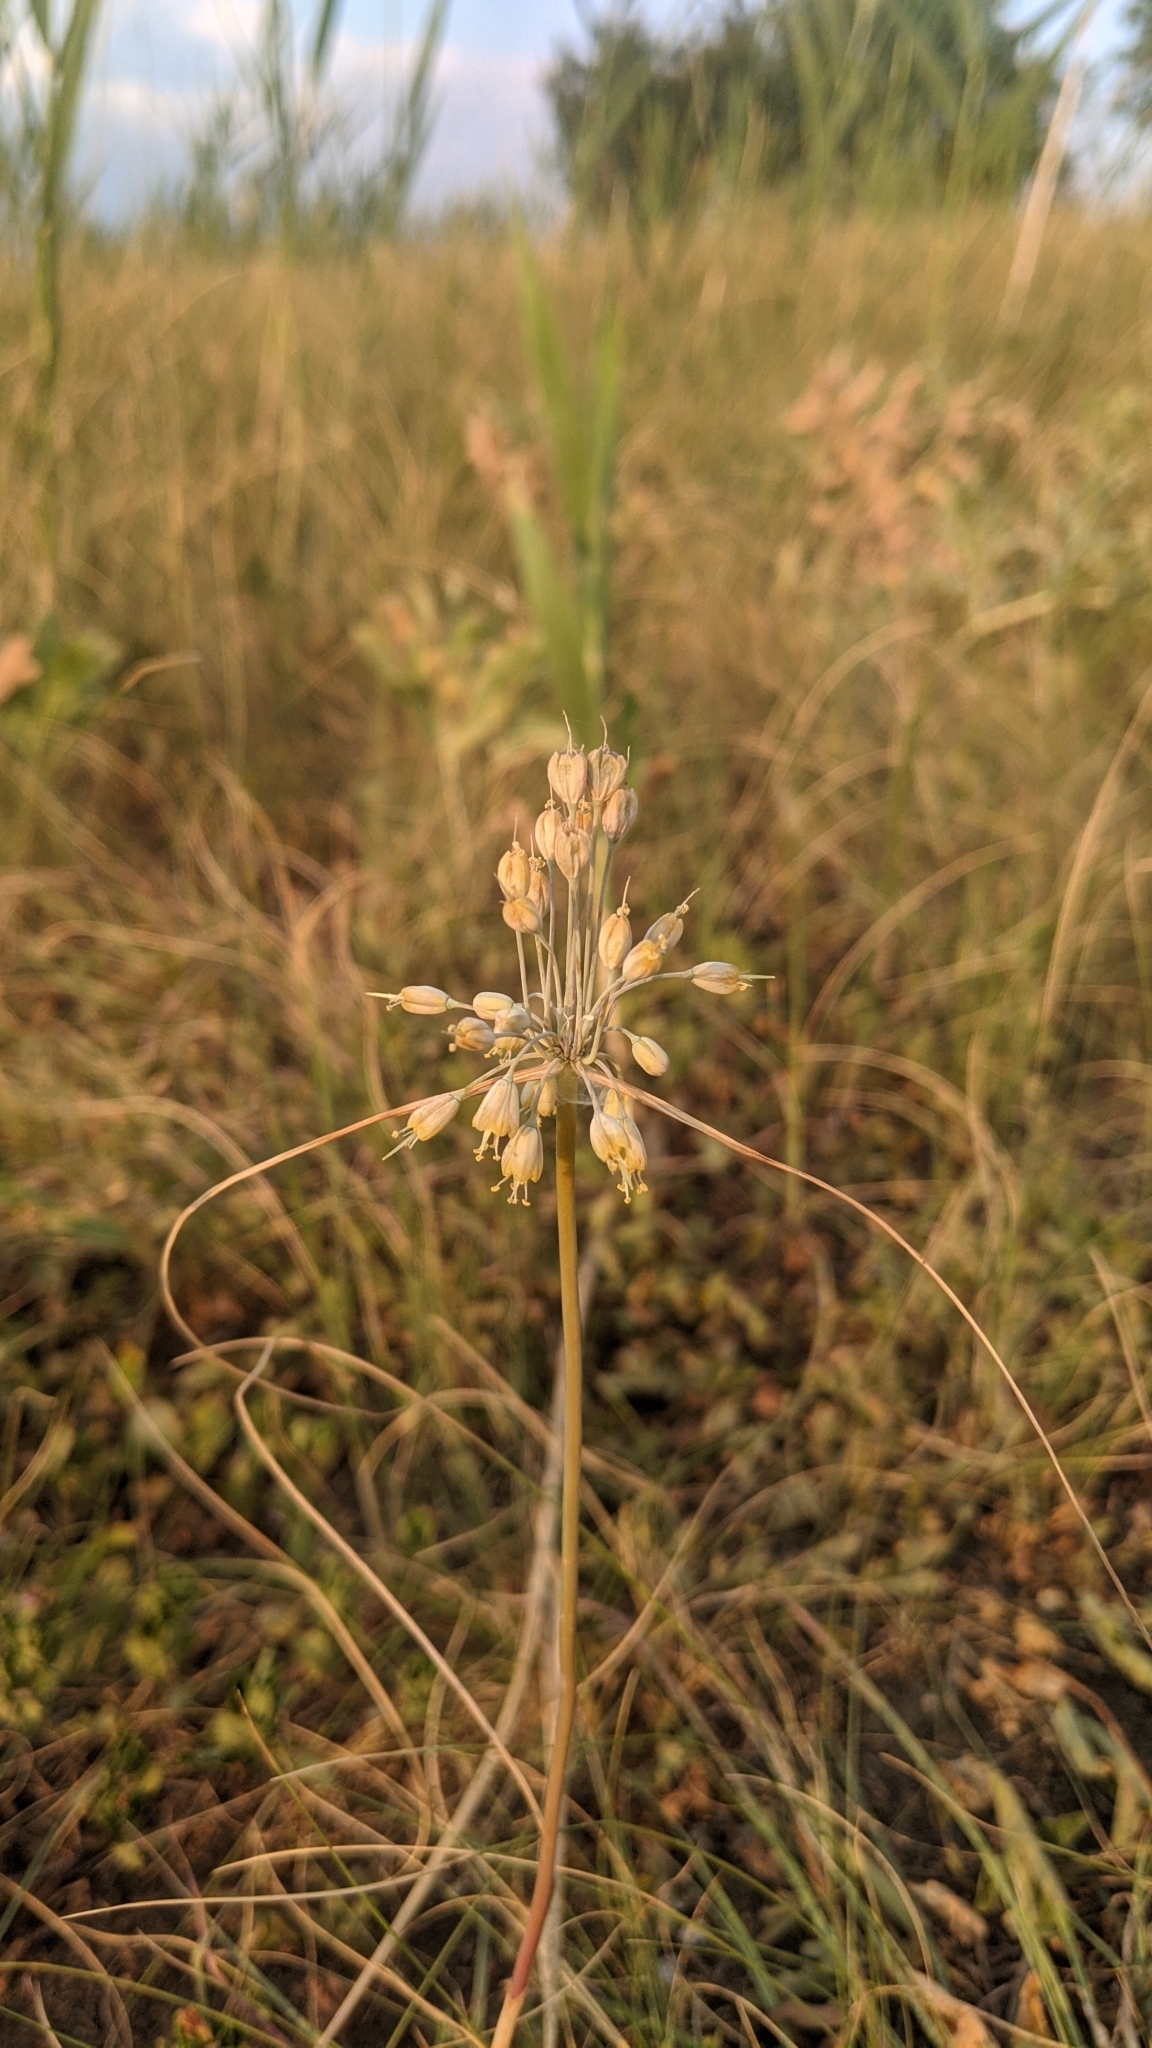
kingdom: Plantae
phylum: Tracheophyta
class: Liliopsida
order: Asparagales
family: Amaryllidaceae
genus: Allium
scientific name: Allium flavum
